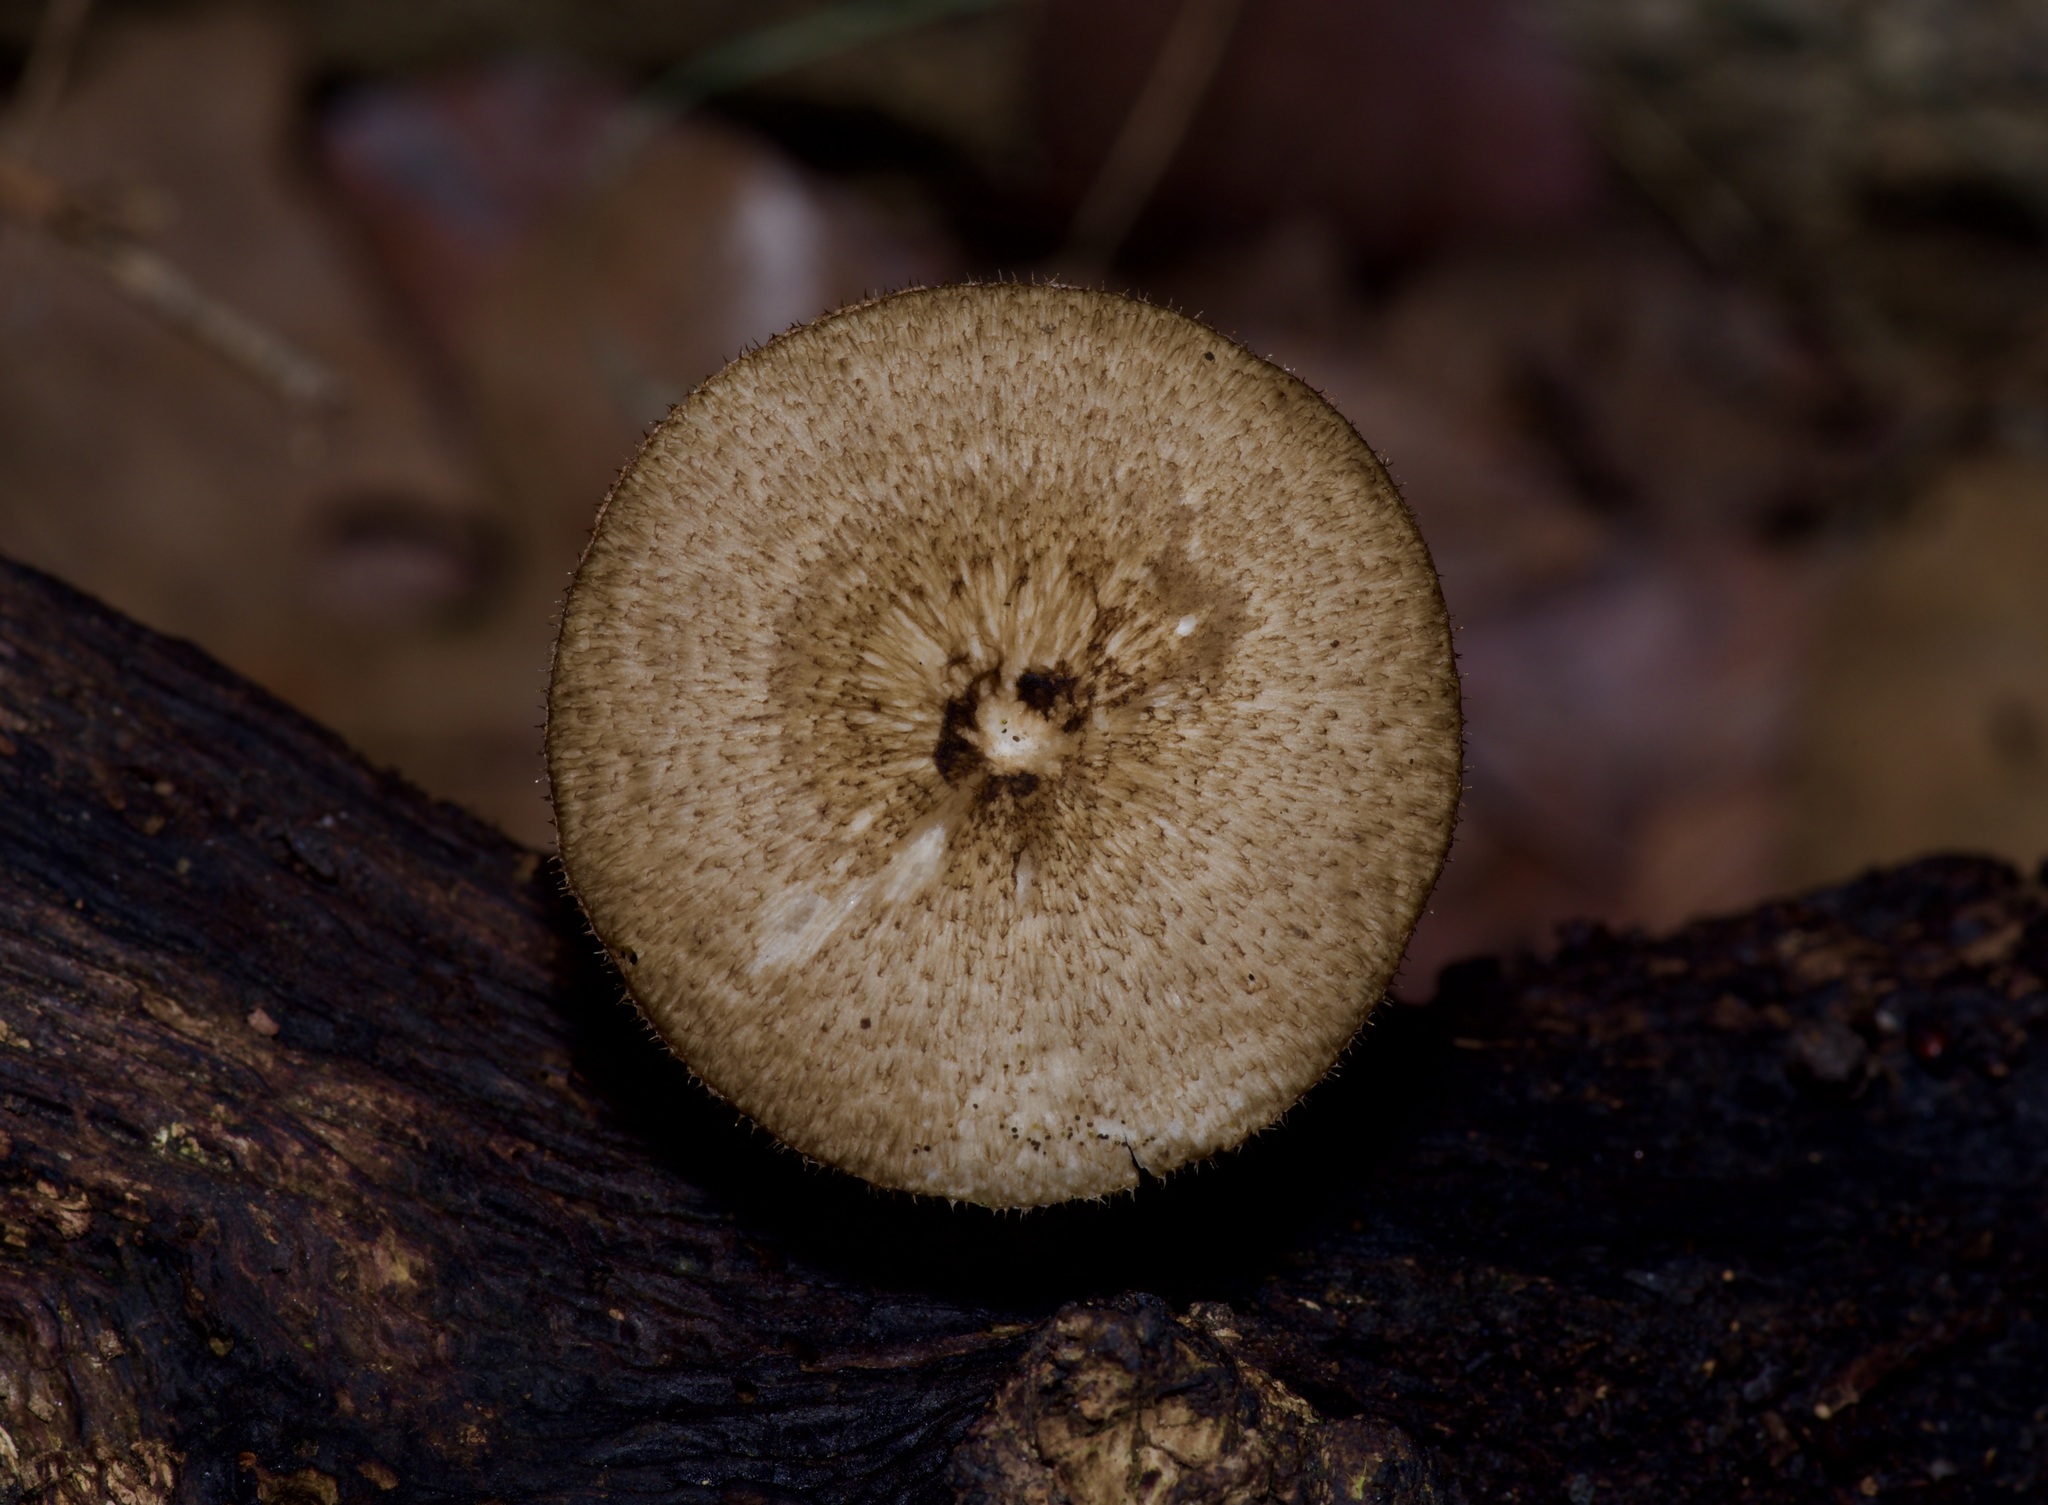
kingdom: Fungi
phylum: Basidiomycota
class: Agaricomycetes
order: Polyporales
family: Polyporaceae
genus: Lentinus
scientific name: Lentinus arcularius
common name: Spring polypore
